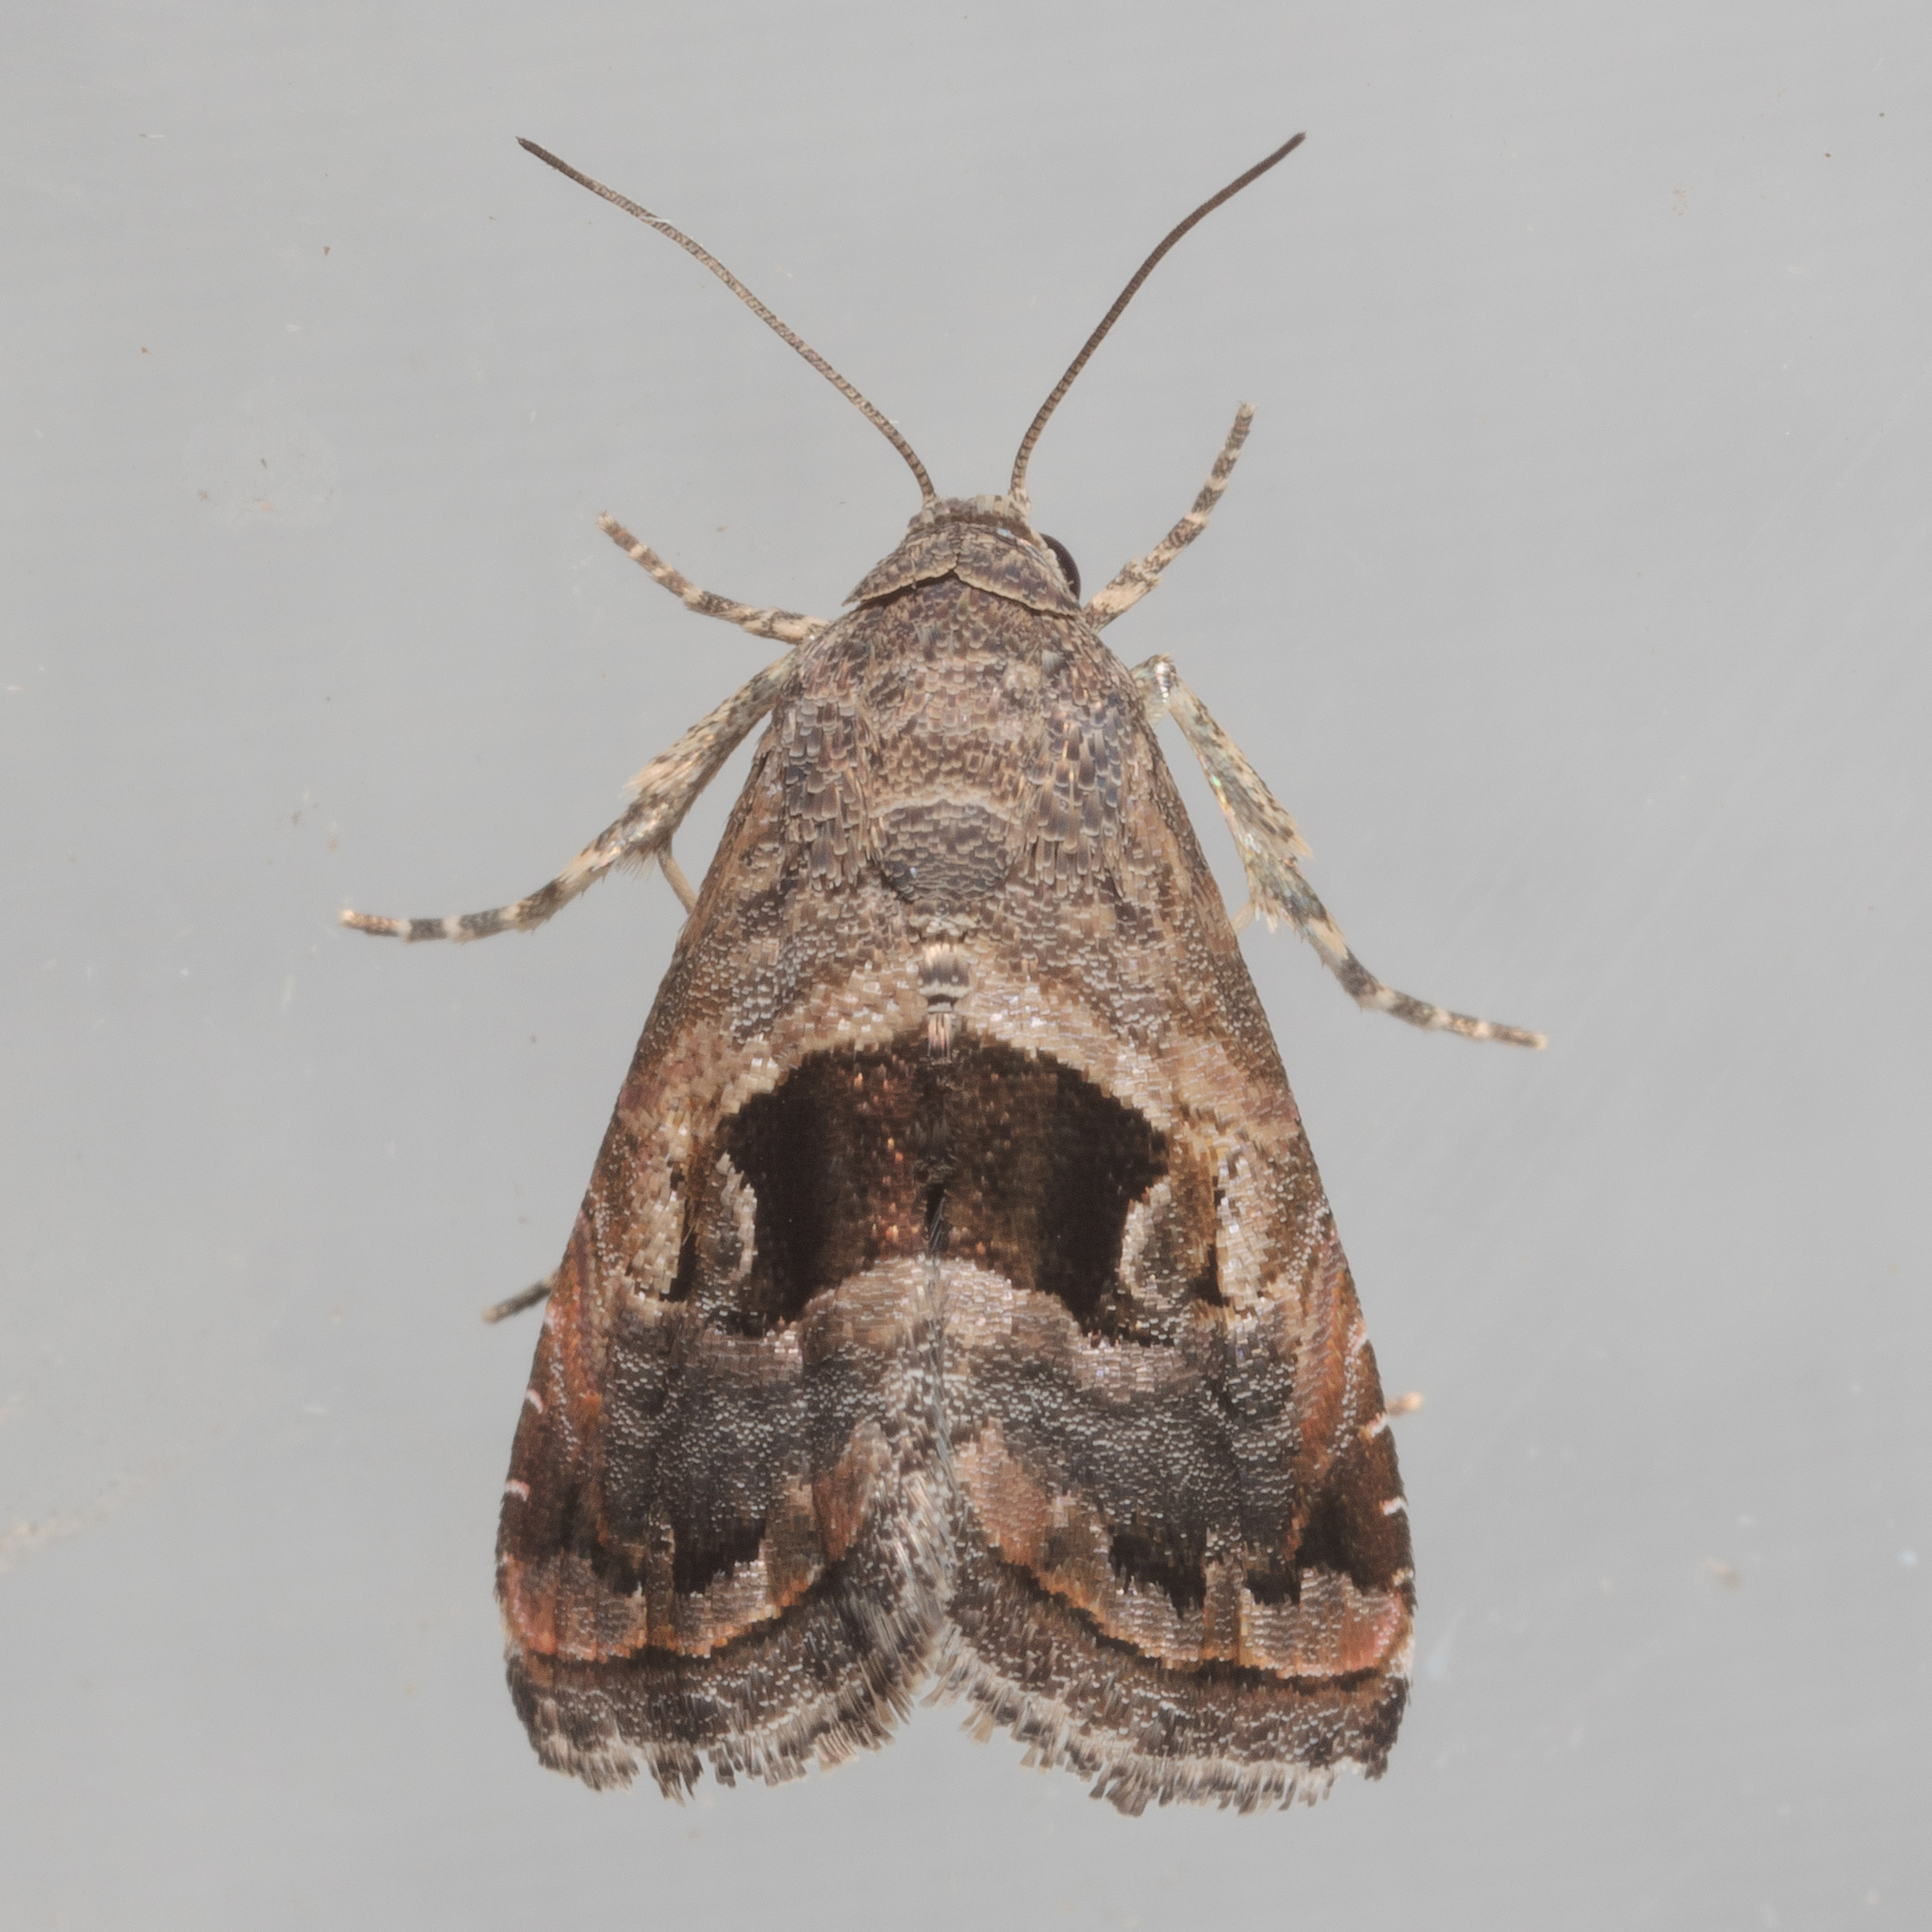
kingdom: Animalia
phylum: Arthropoda
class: Insecta
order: Lepidoptera
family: Noctuidae
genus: Tripudia
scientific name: Tripudia quadrifera
